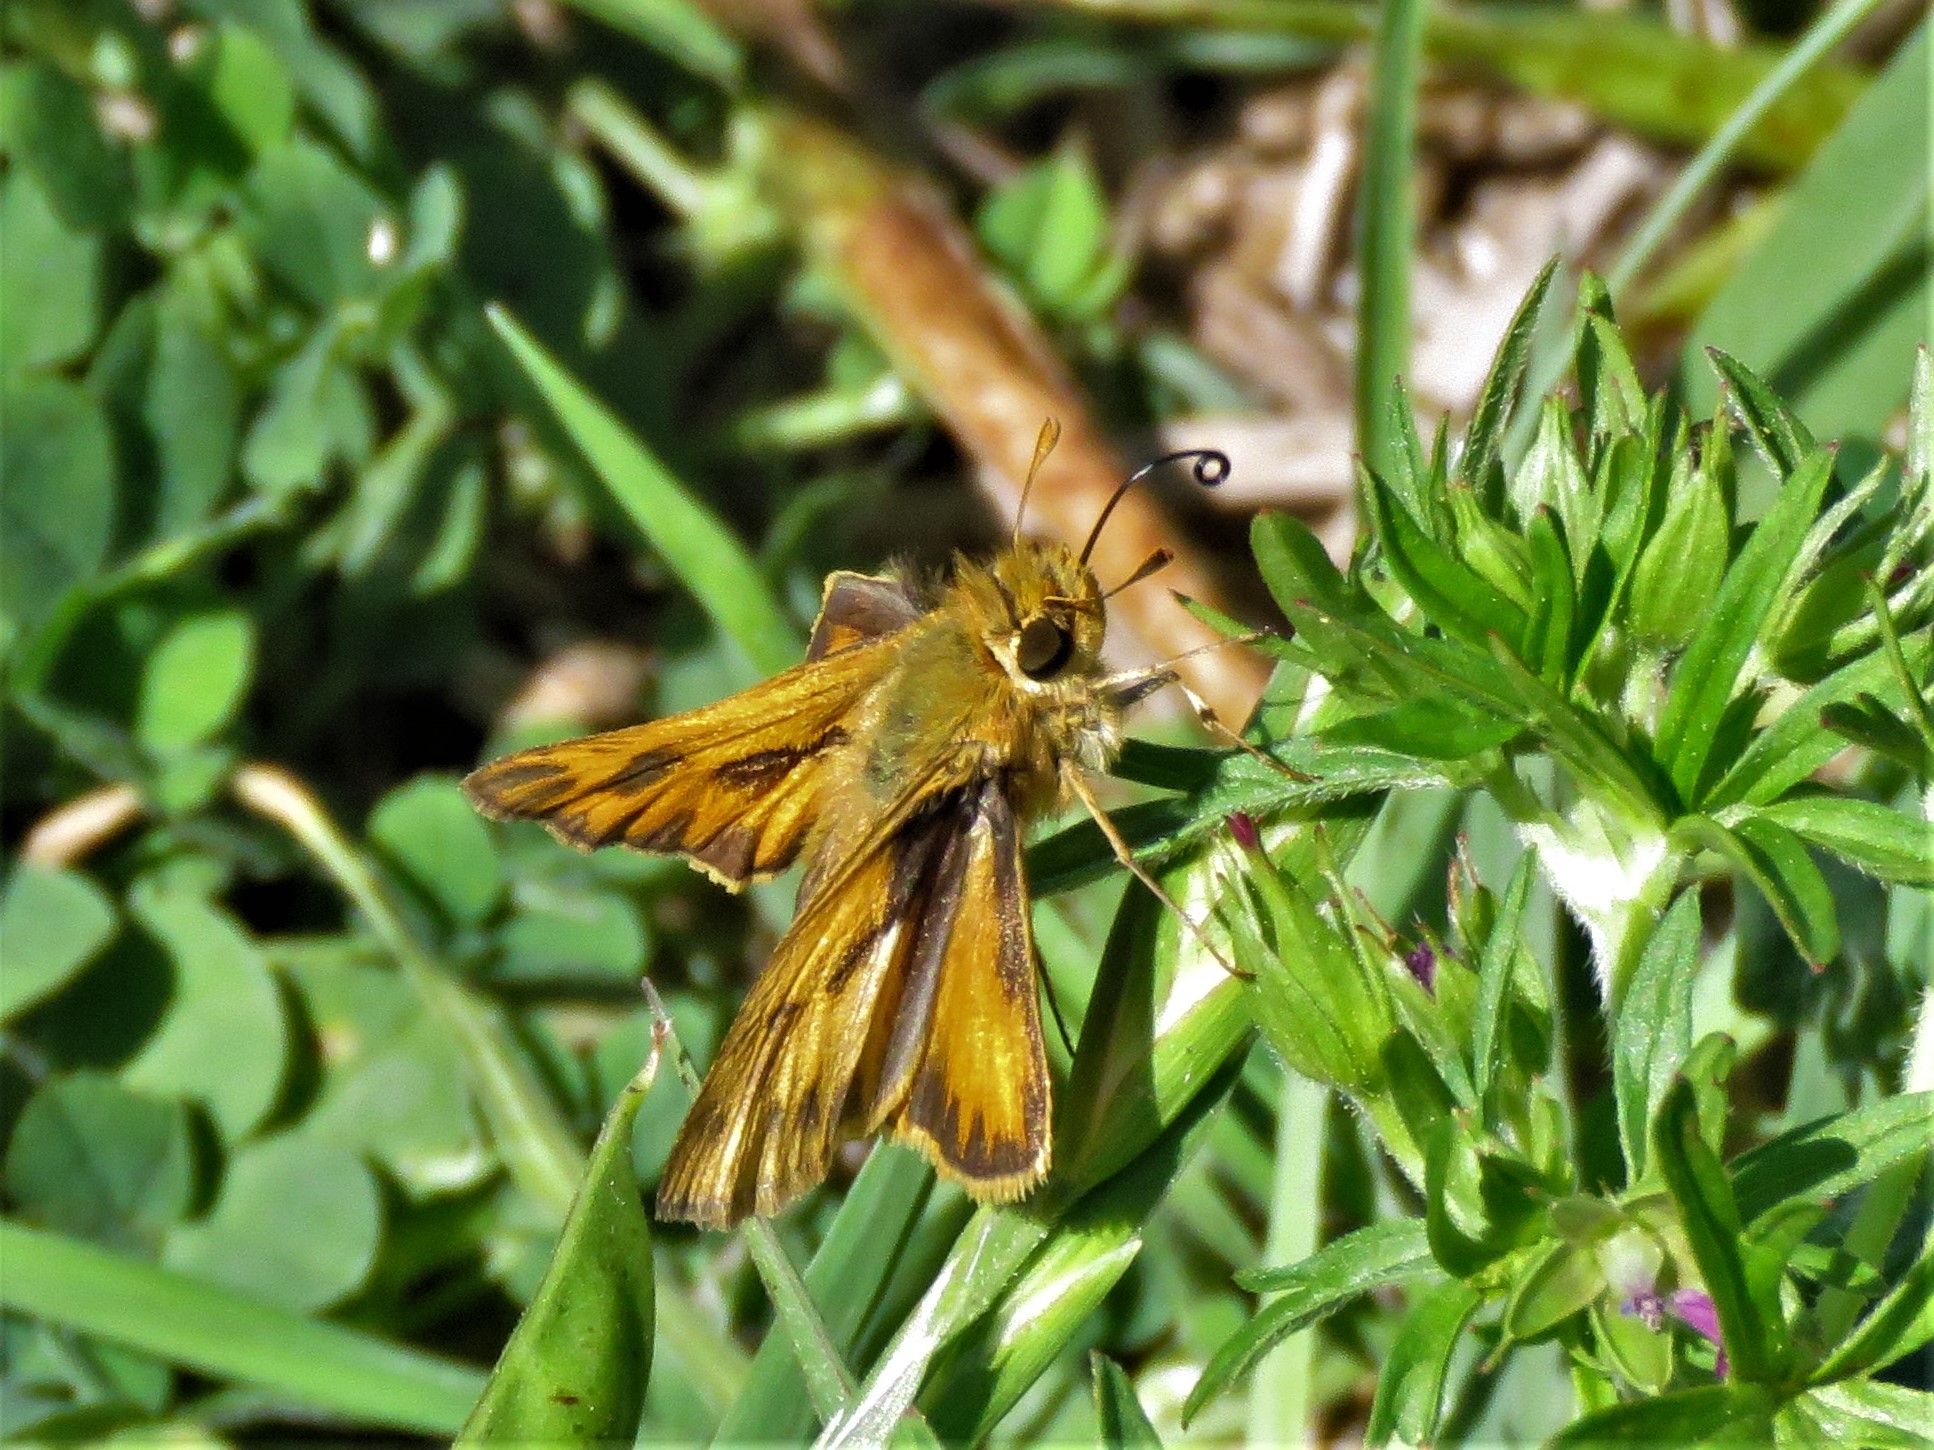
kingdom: Animalia
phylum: Arthropoda
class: Insecta
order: Lepidoptera
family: Hesperiidae
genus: Hylephila
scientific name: Hylephila phyleus
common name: Fiery skipper
